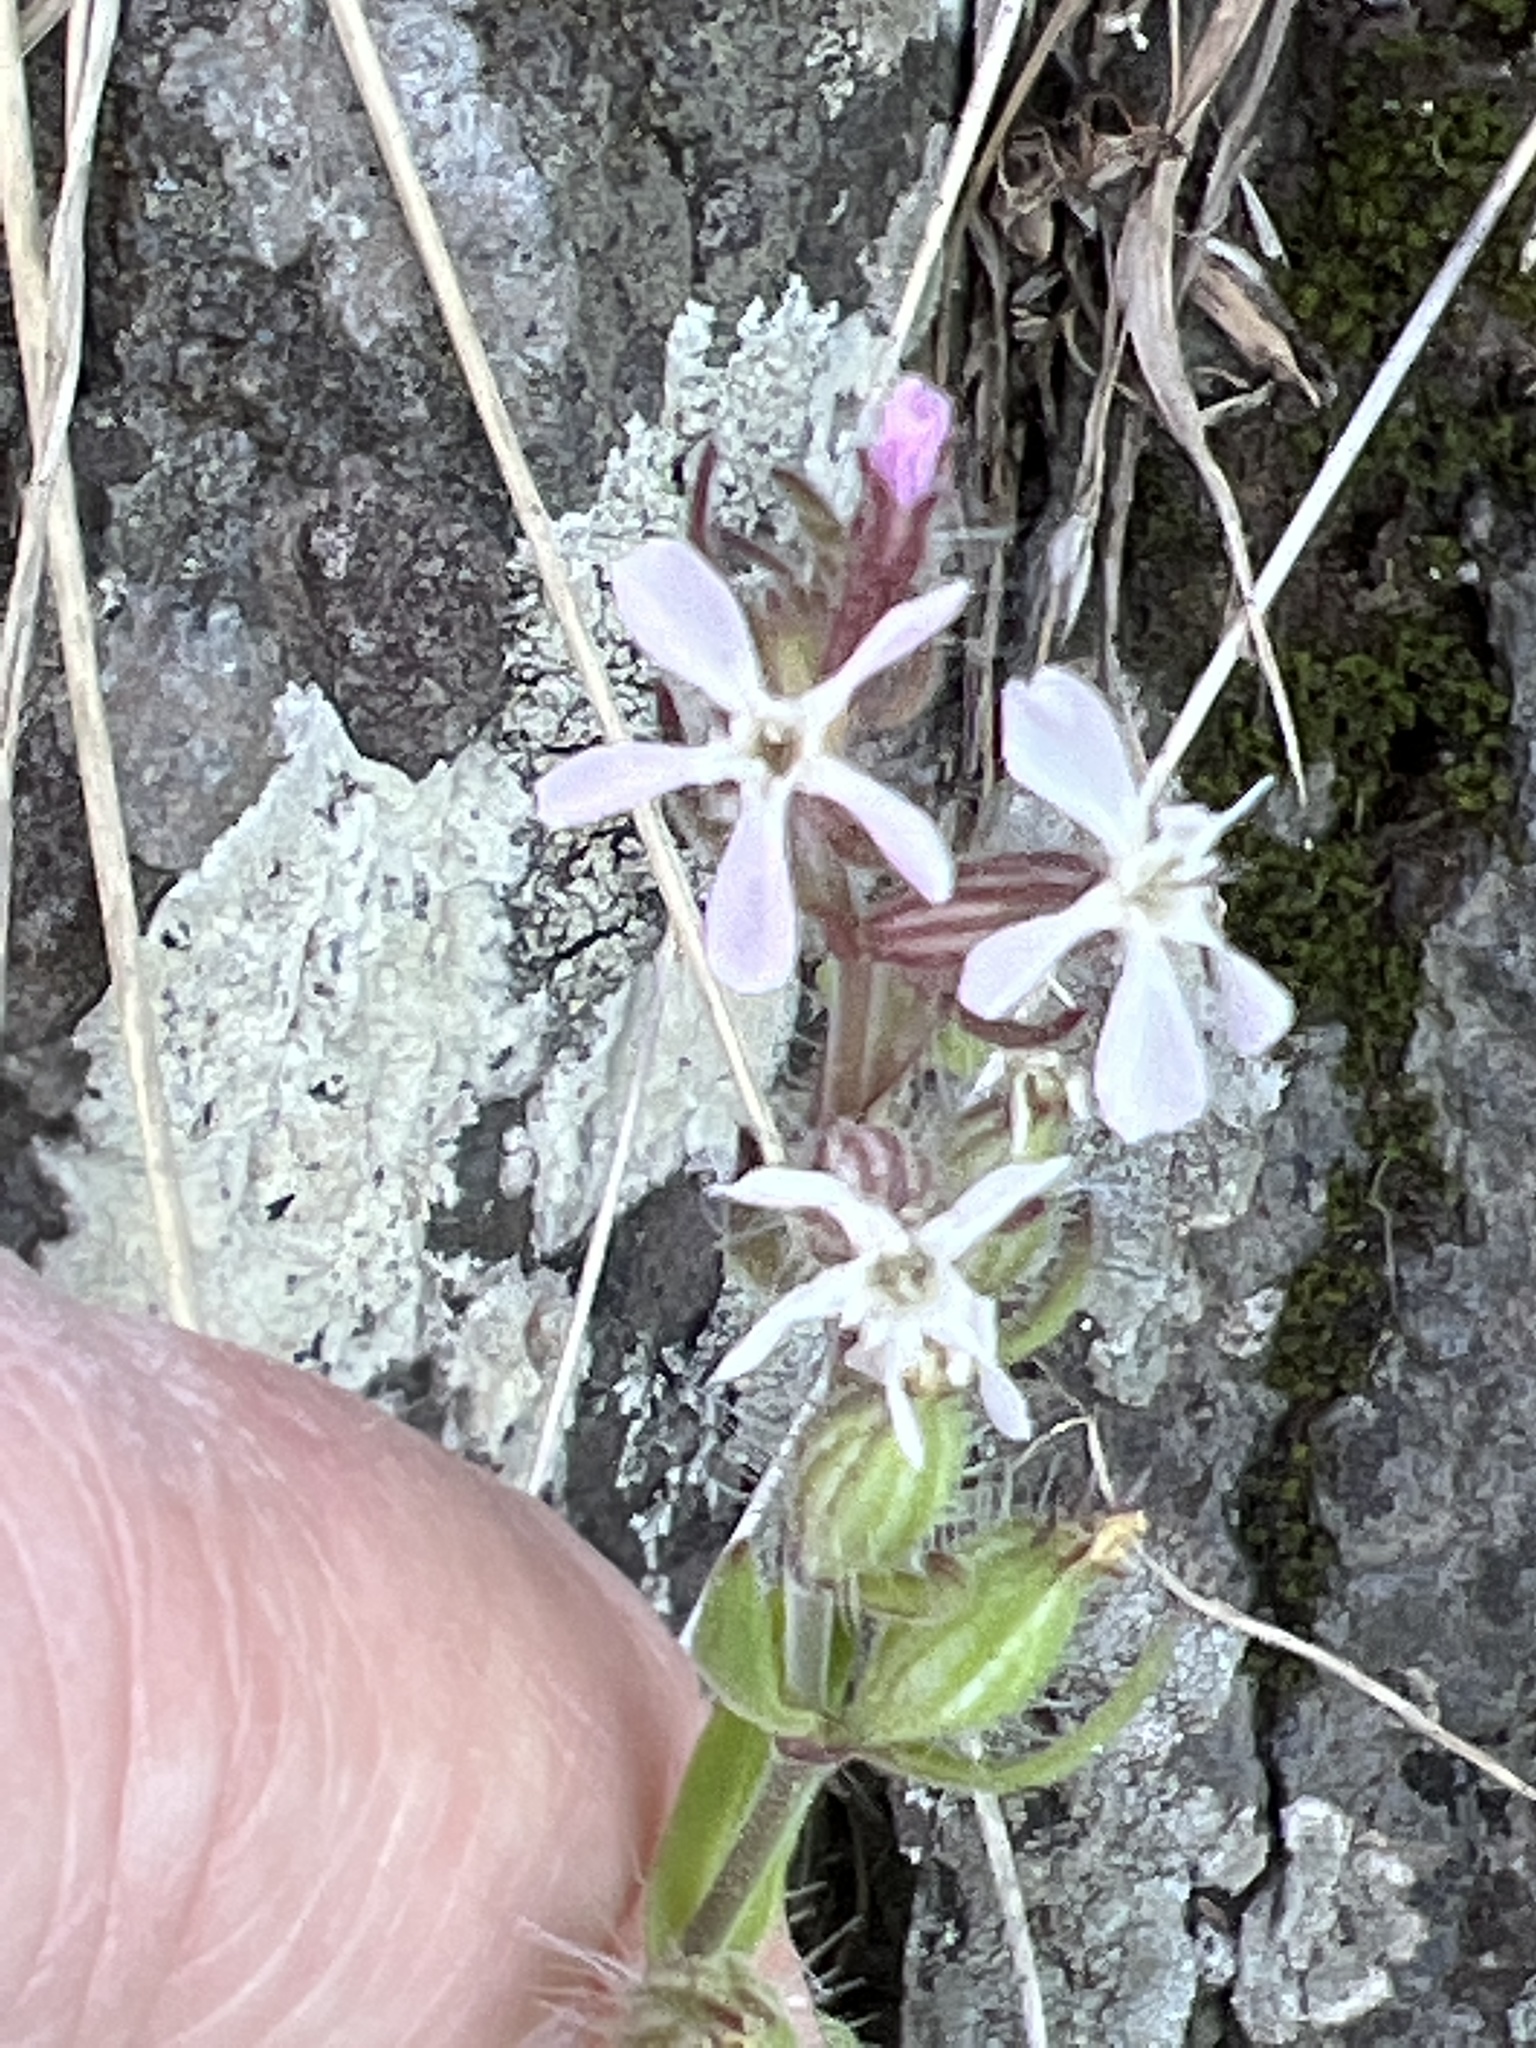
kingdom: Plantae
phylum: Tracheophyta
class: Magnoliopsida
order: Caryophyllales
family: Caryophyllaceae
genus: Silene
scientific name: Silene gallica
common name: Small-flowered catchfly
